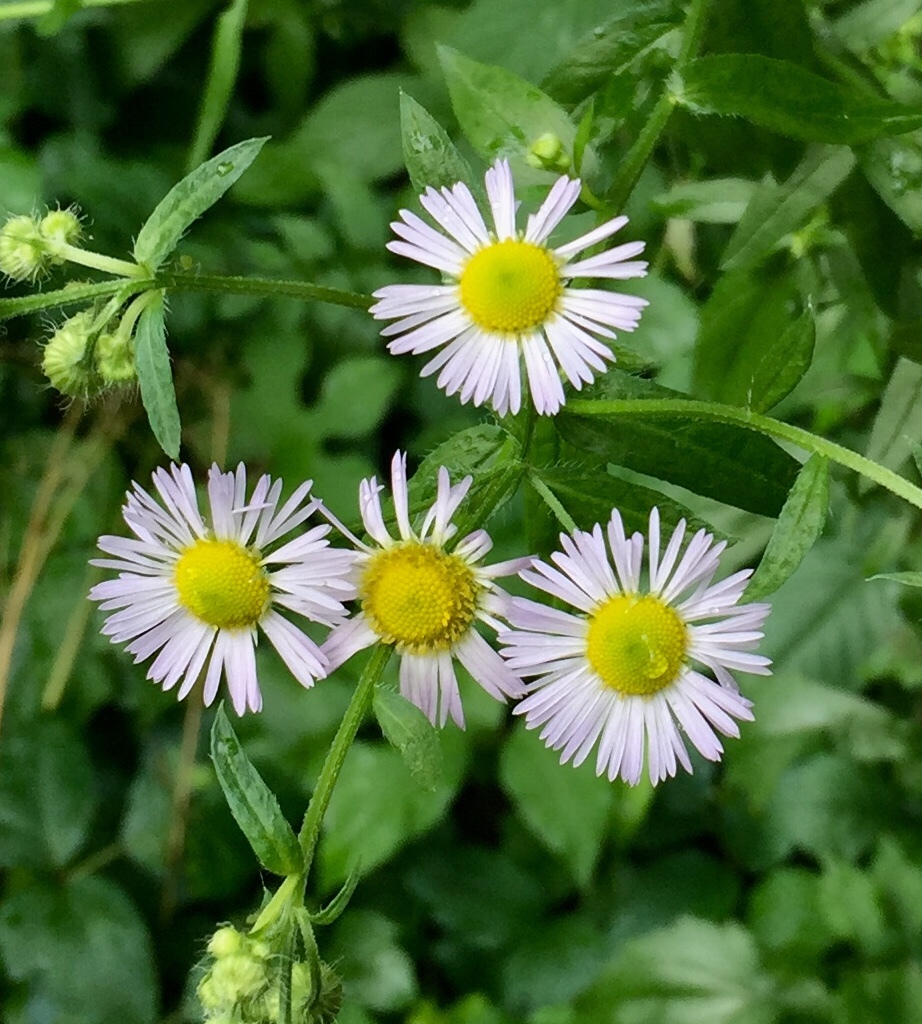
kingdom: Plantae
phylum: Tracheophyta
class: Magnoliopsida
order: Asterales
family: Asteraceae
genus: Erigeron
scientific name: Erigeron annuus
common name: Tall fleabane
